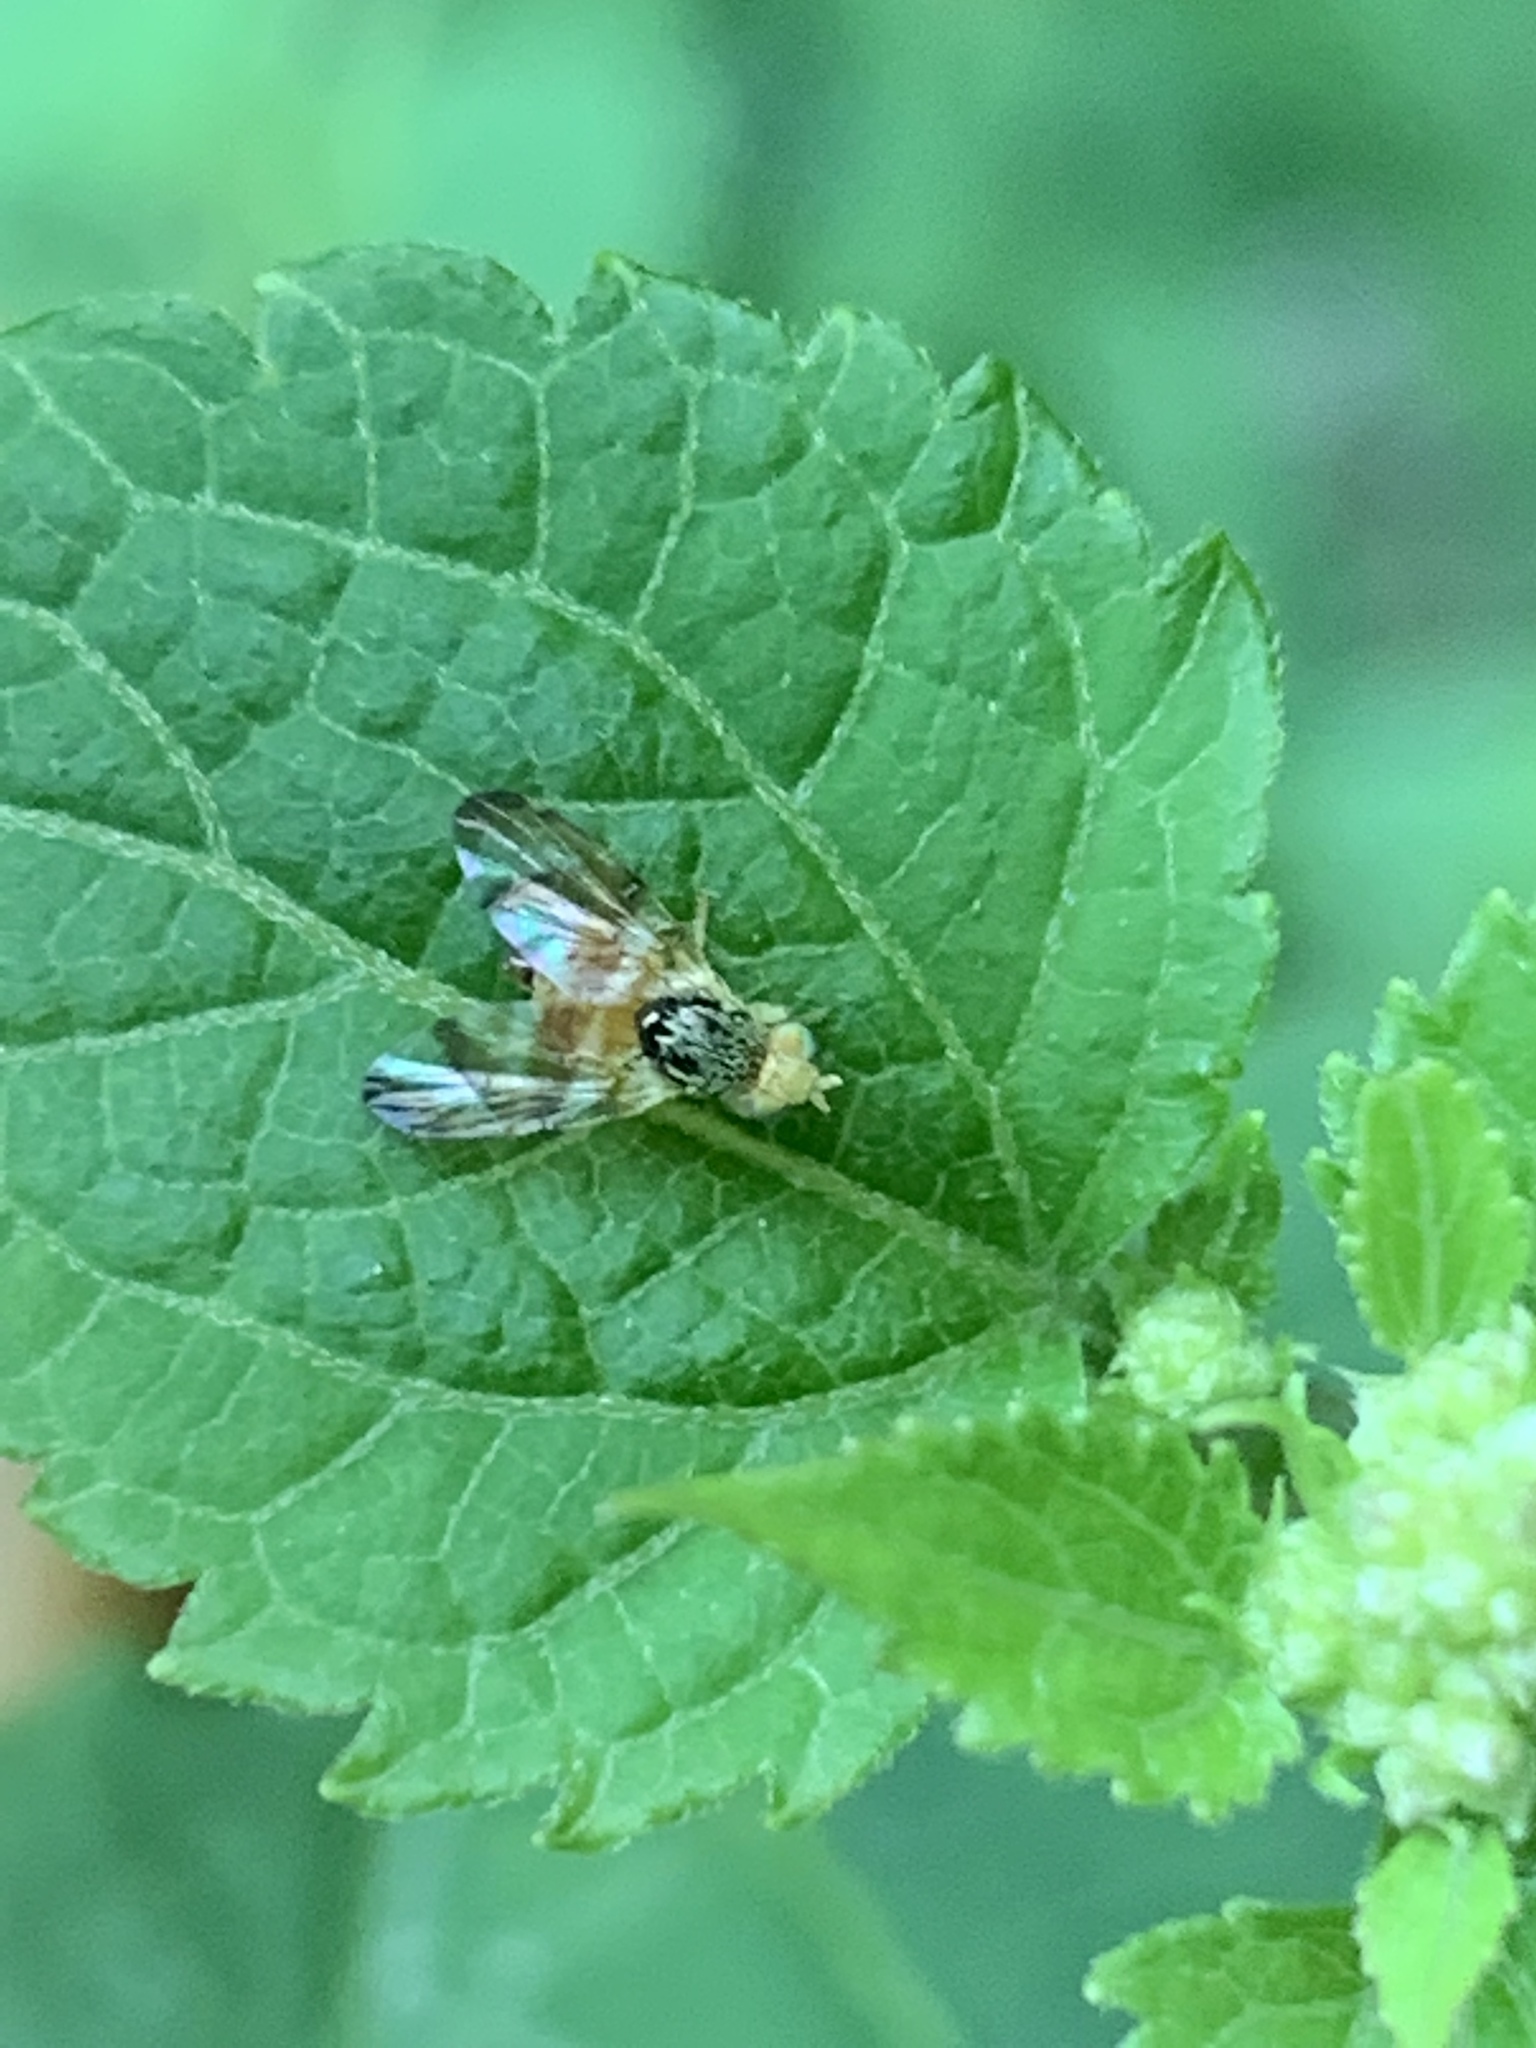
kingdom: Animalia
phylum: Arthropoda
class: Insecta
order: Diptera
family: Tephritidae
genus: Procecidocharoides
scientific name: Procecidocharoides penelope
